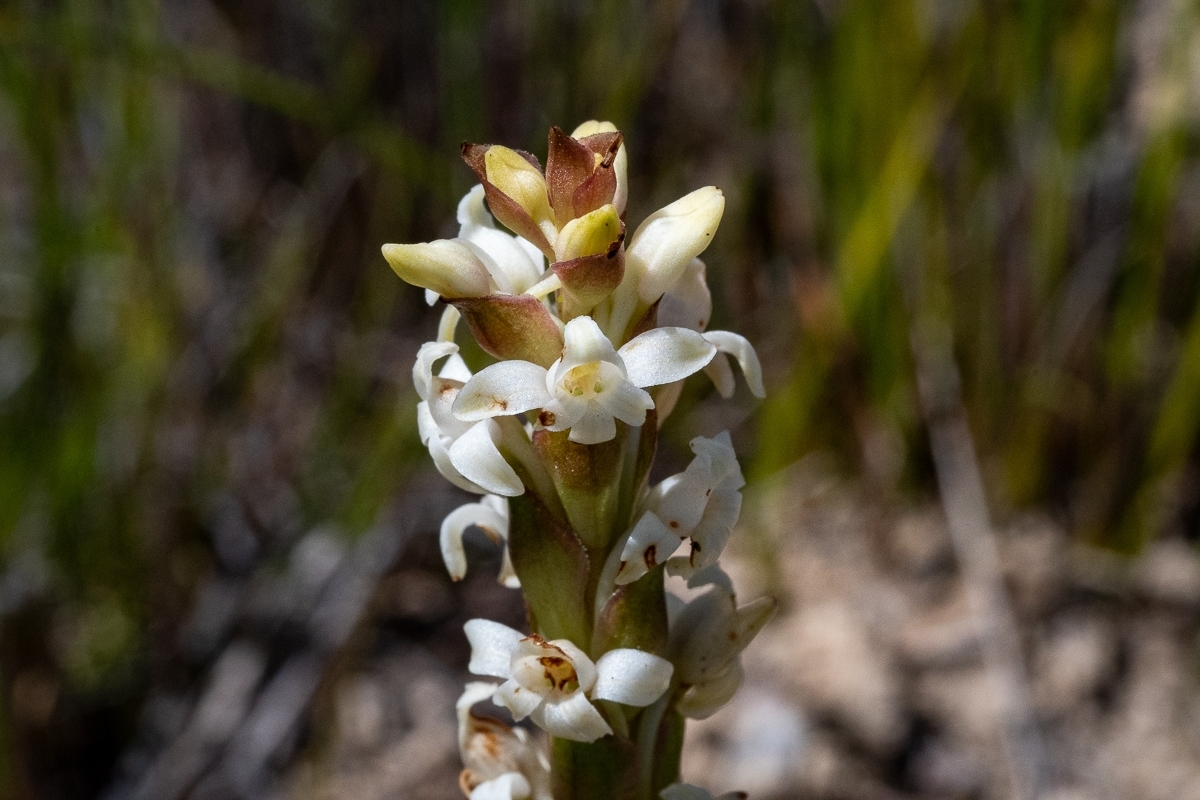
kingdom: Plantae
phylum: Tracheophyta
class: Liliopsida
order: Asparagales
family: Orchidaceae
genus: Satyrium
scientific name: Satyrium stenopetalum
